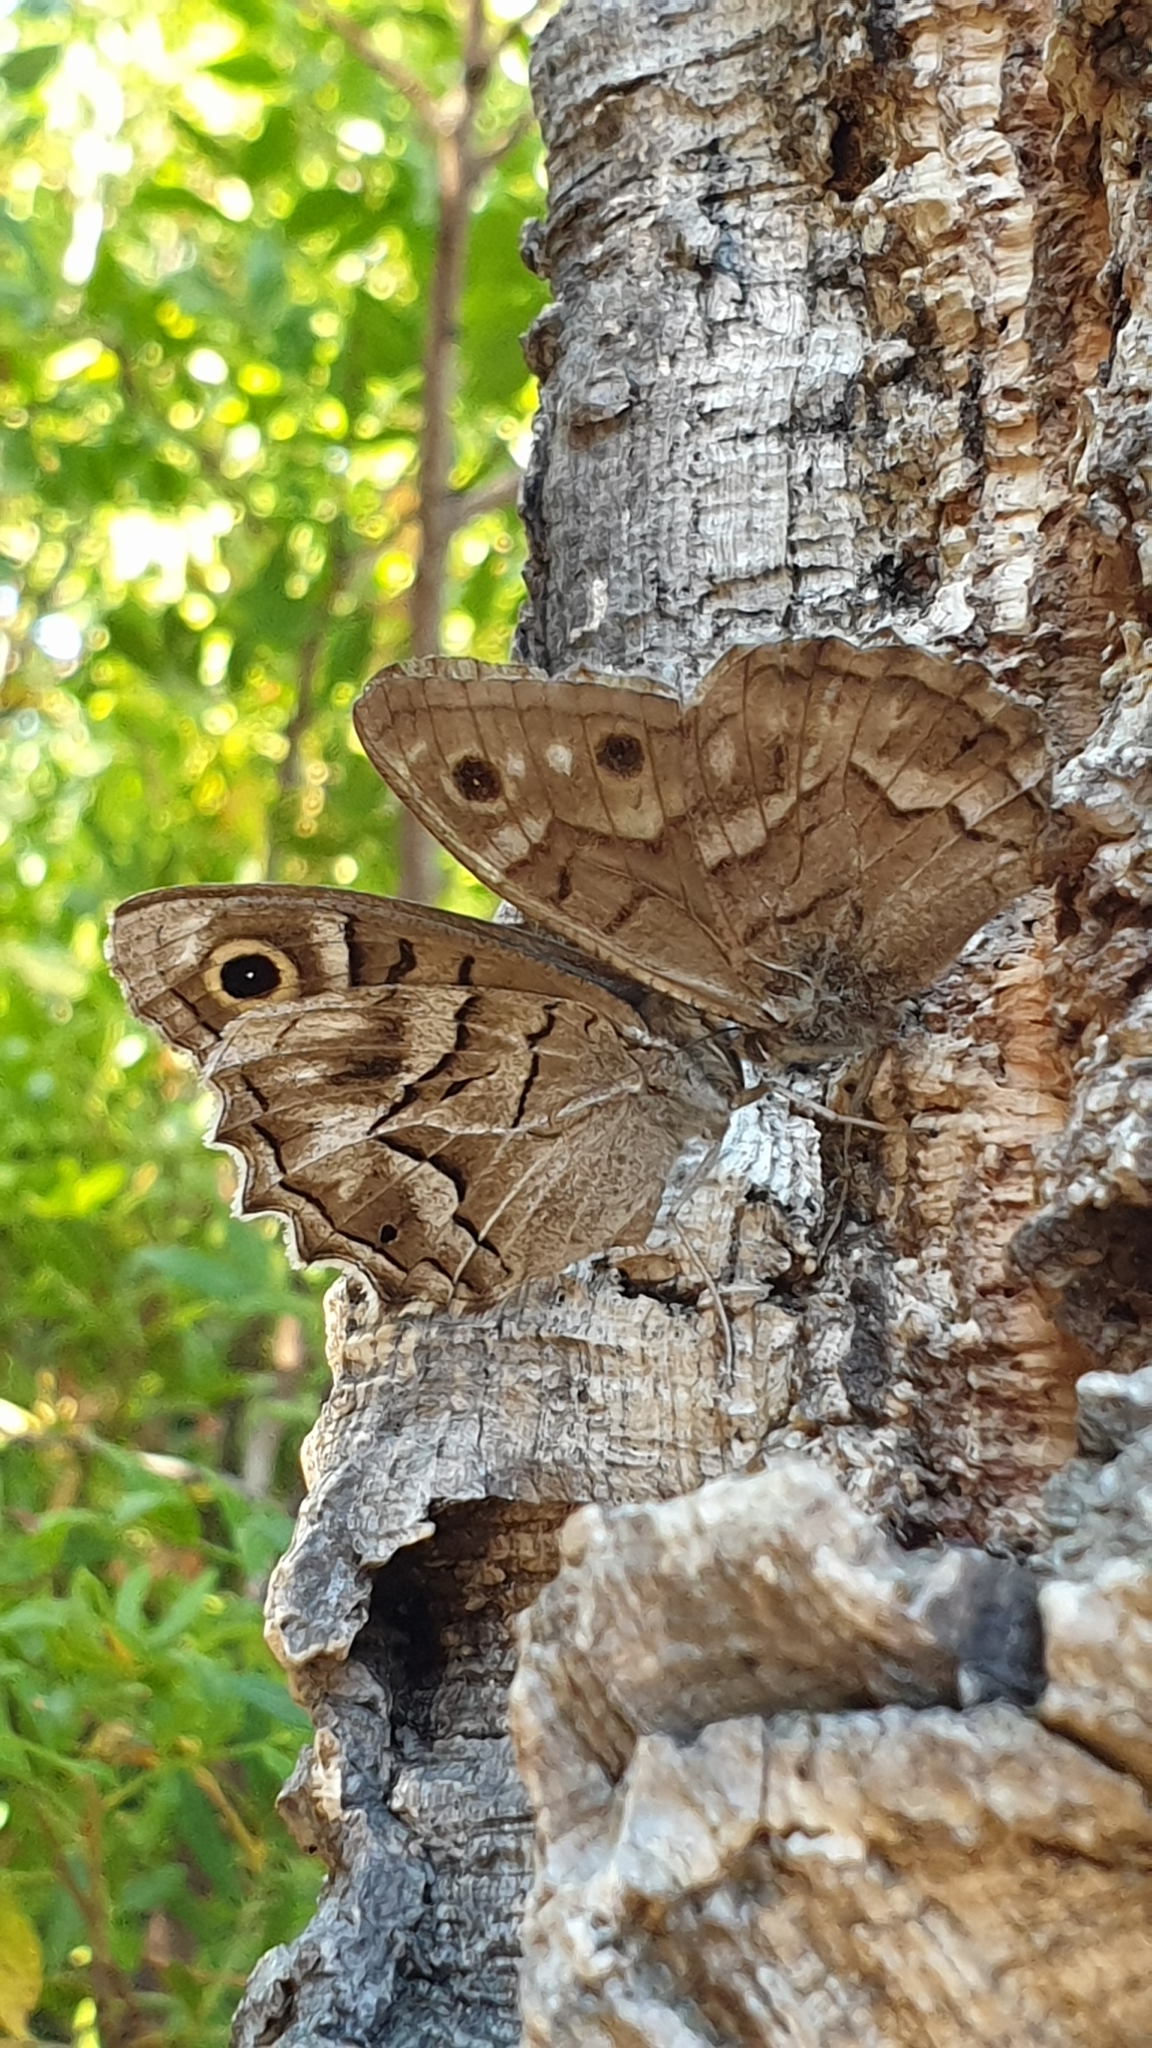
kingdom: Animalia
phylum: Arthropoda
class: Insecta
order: Lepidoptera
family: Nymphalidae
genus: Hipparchia
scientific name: Hipparchia fidia
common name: Striped grayling
